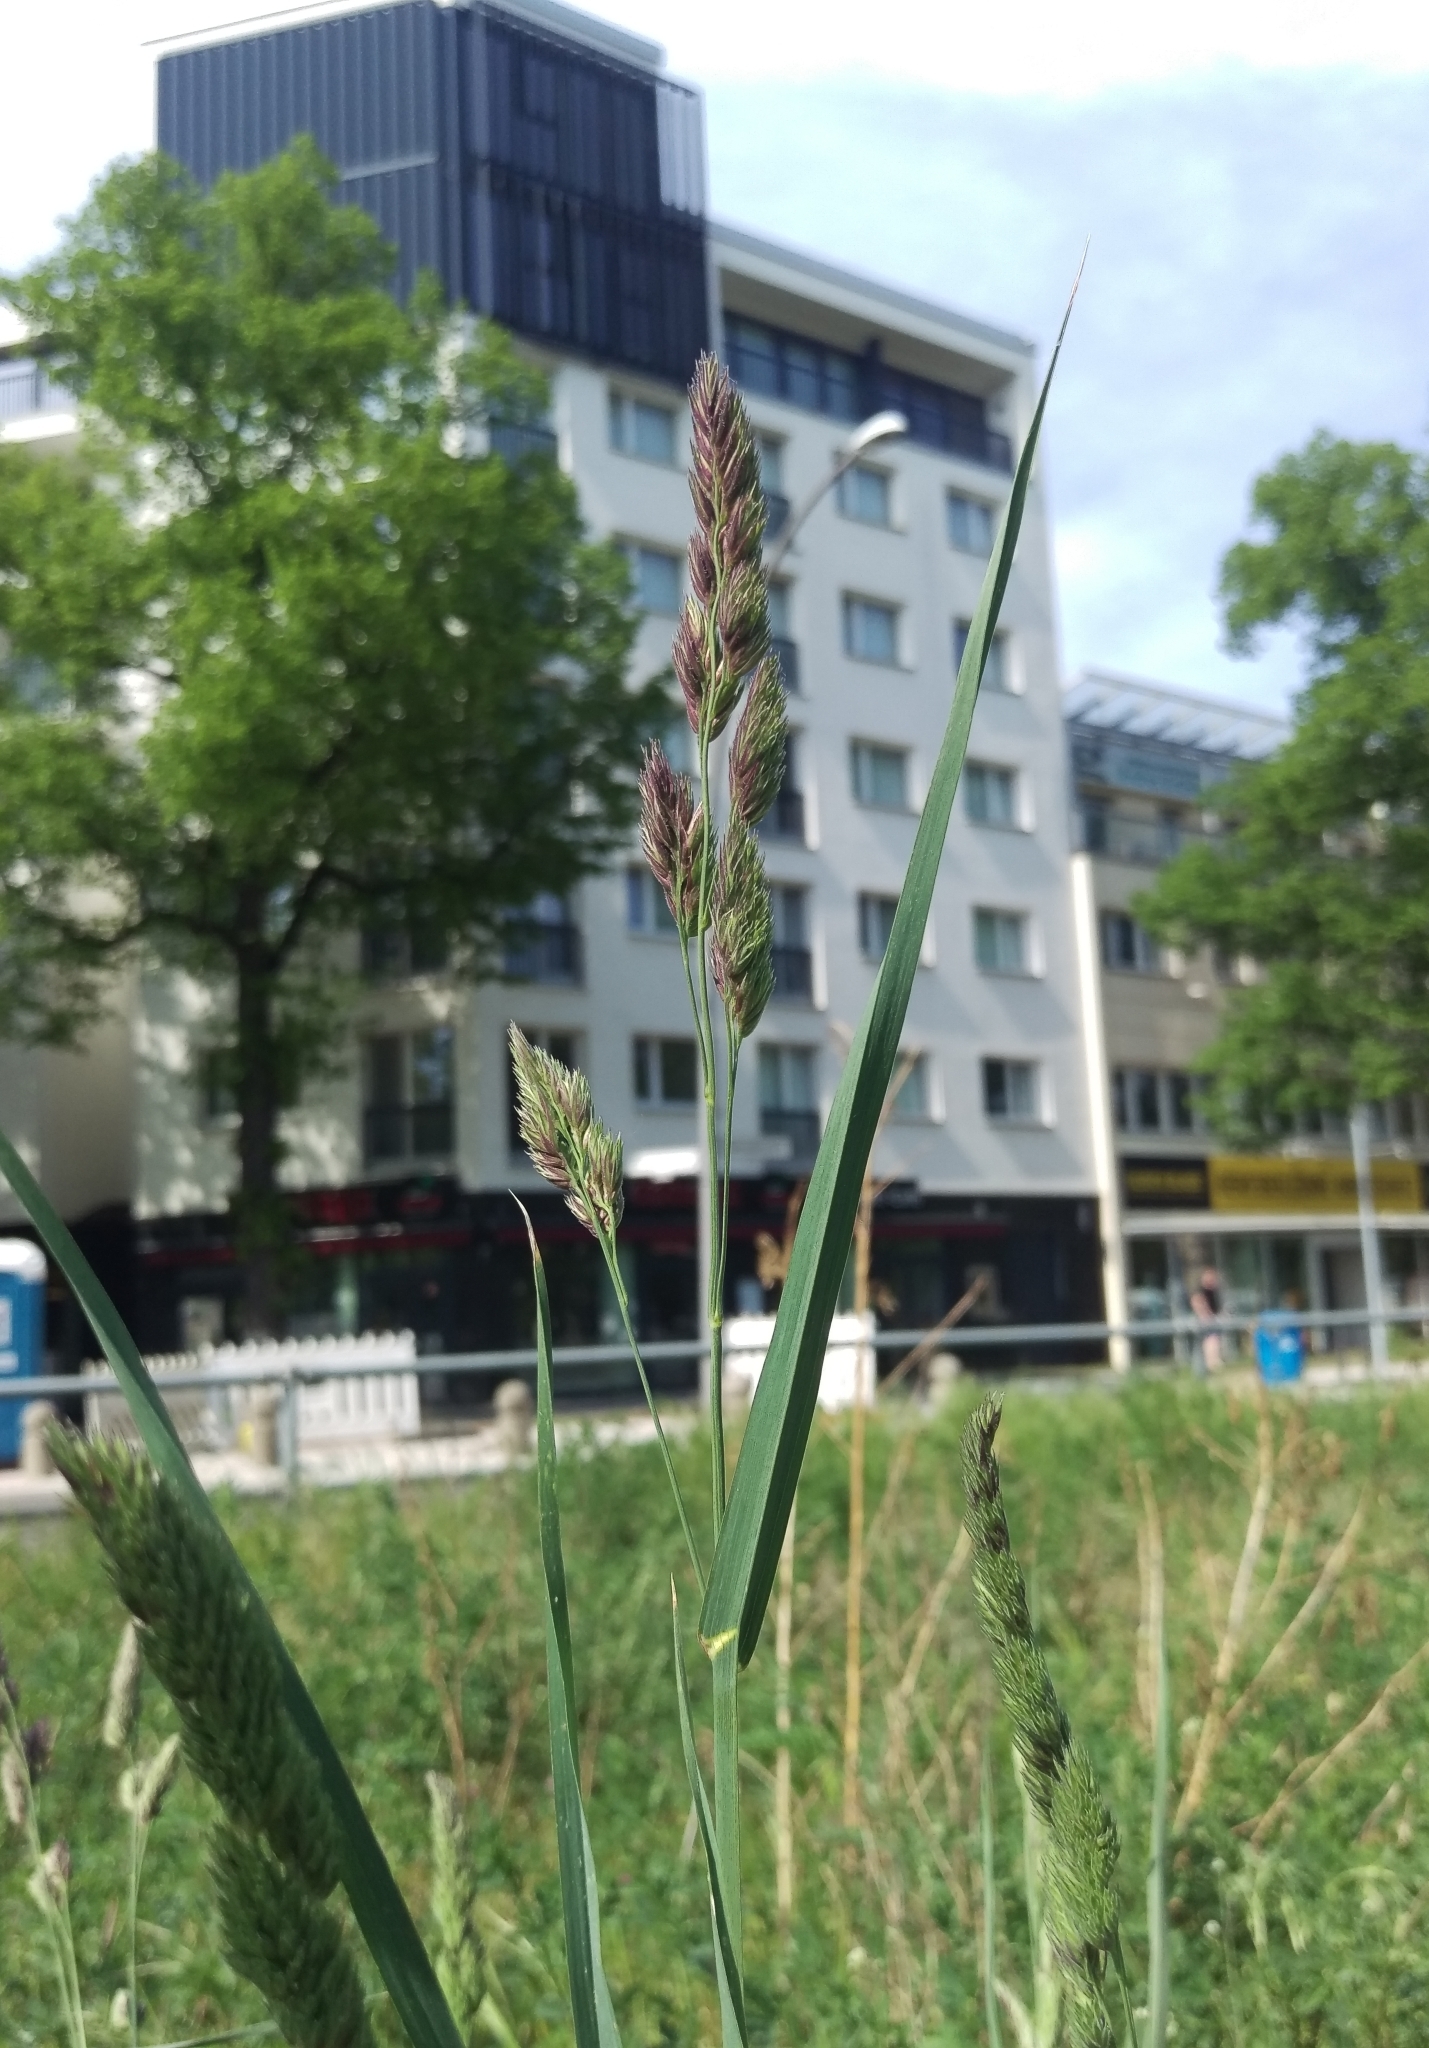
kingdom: Plantae
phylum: Tracheophyta
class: Liliopsida
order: Poales
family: Poaceae
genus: Dactylis
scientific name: Dactylis glomerata
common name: Orchardgrass
